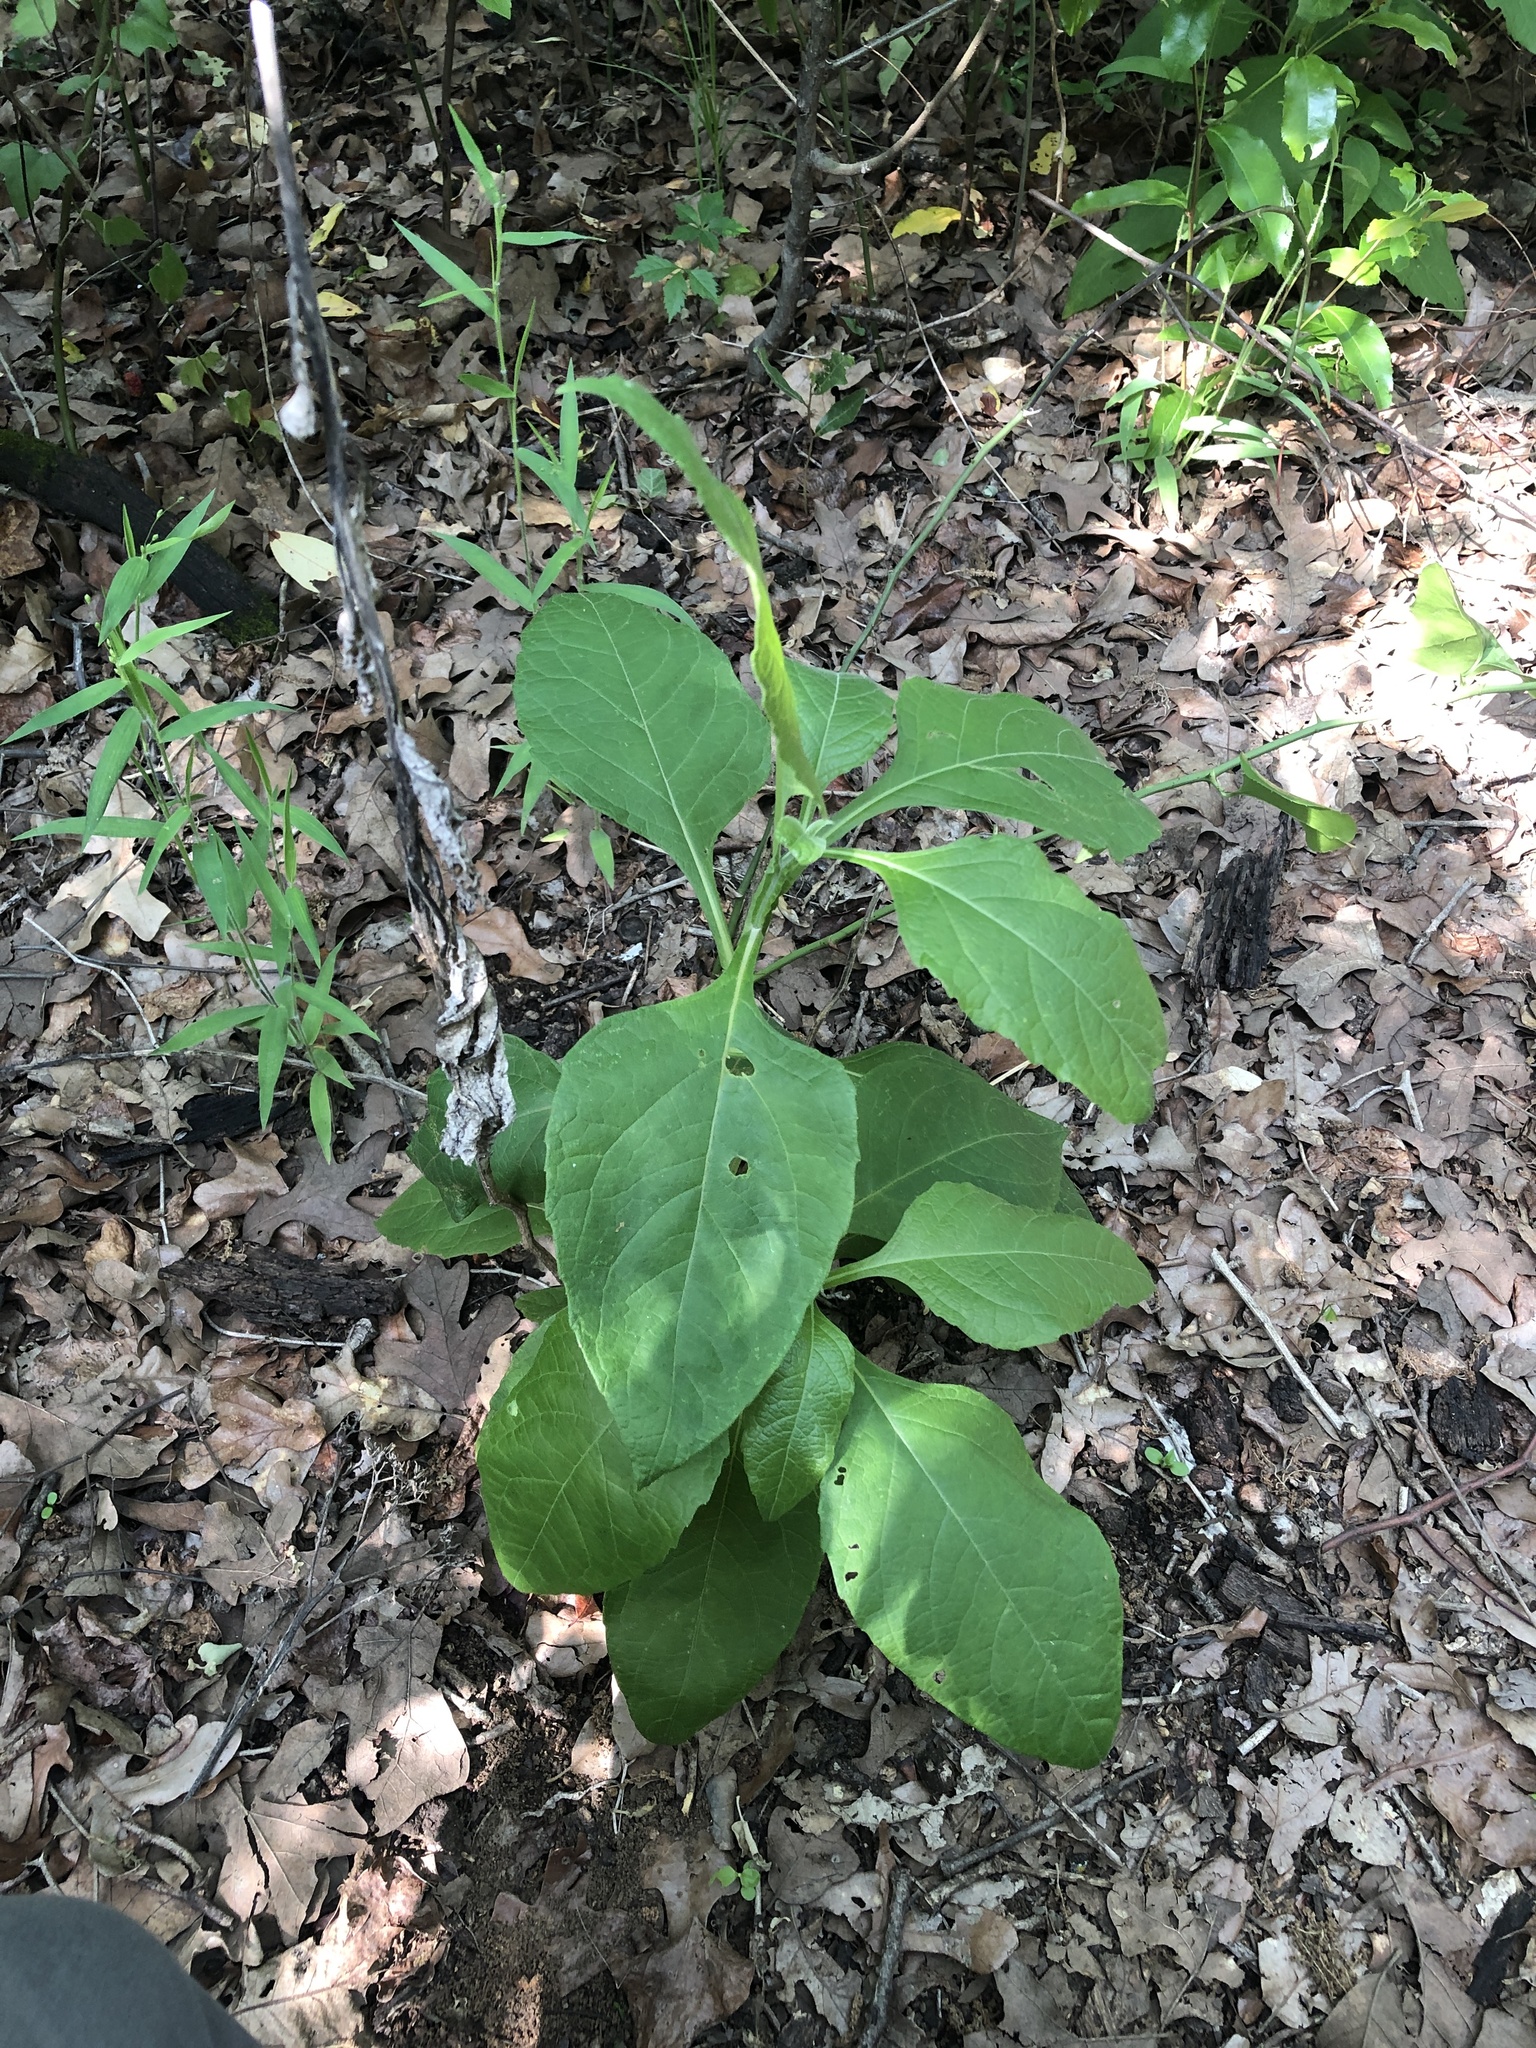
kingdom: Plantae
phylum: Tracheophyta
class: Magnoliopsida
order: Asterales
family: Asteraceae
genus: Verbesina
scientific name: Verbesina virginica
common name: Frostweed
